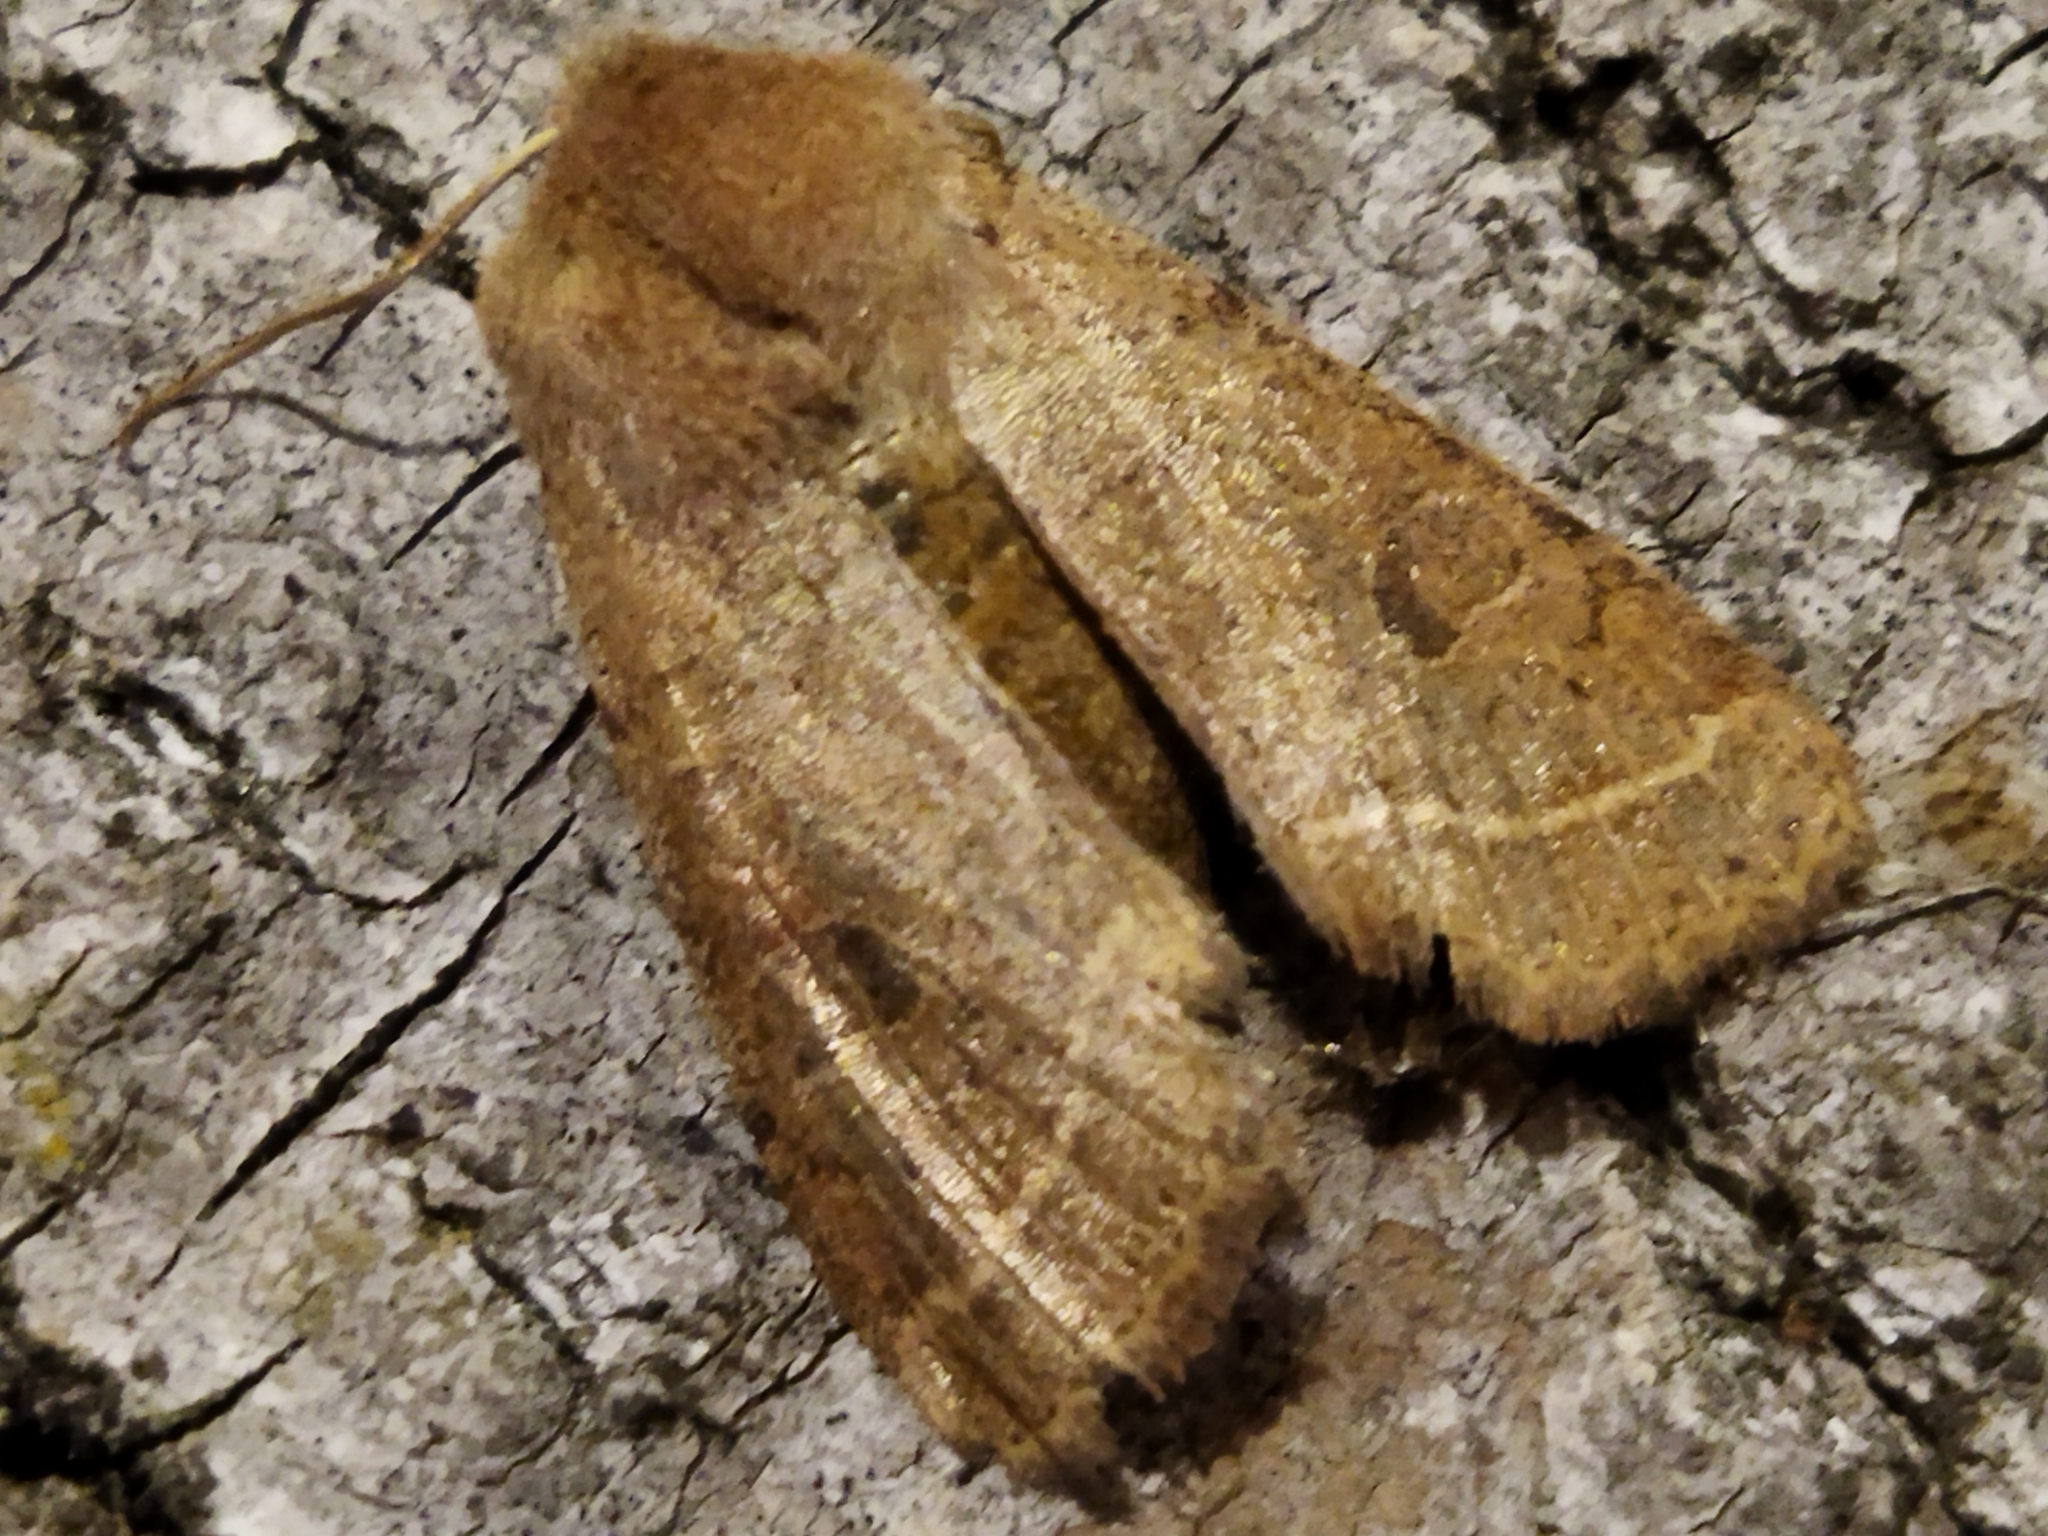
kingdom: Animalia
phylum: Arthropoda
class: Insecta
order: Lepidoptera
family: Noctuidae
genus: Orthosia
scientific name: Orthosia cerasi
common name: Common quaker
